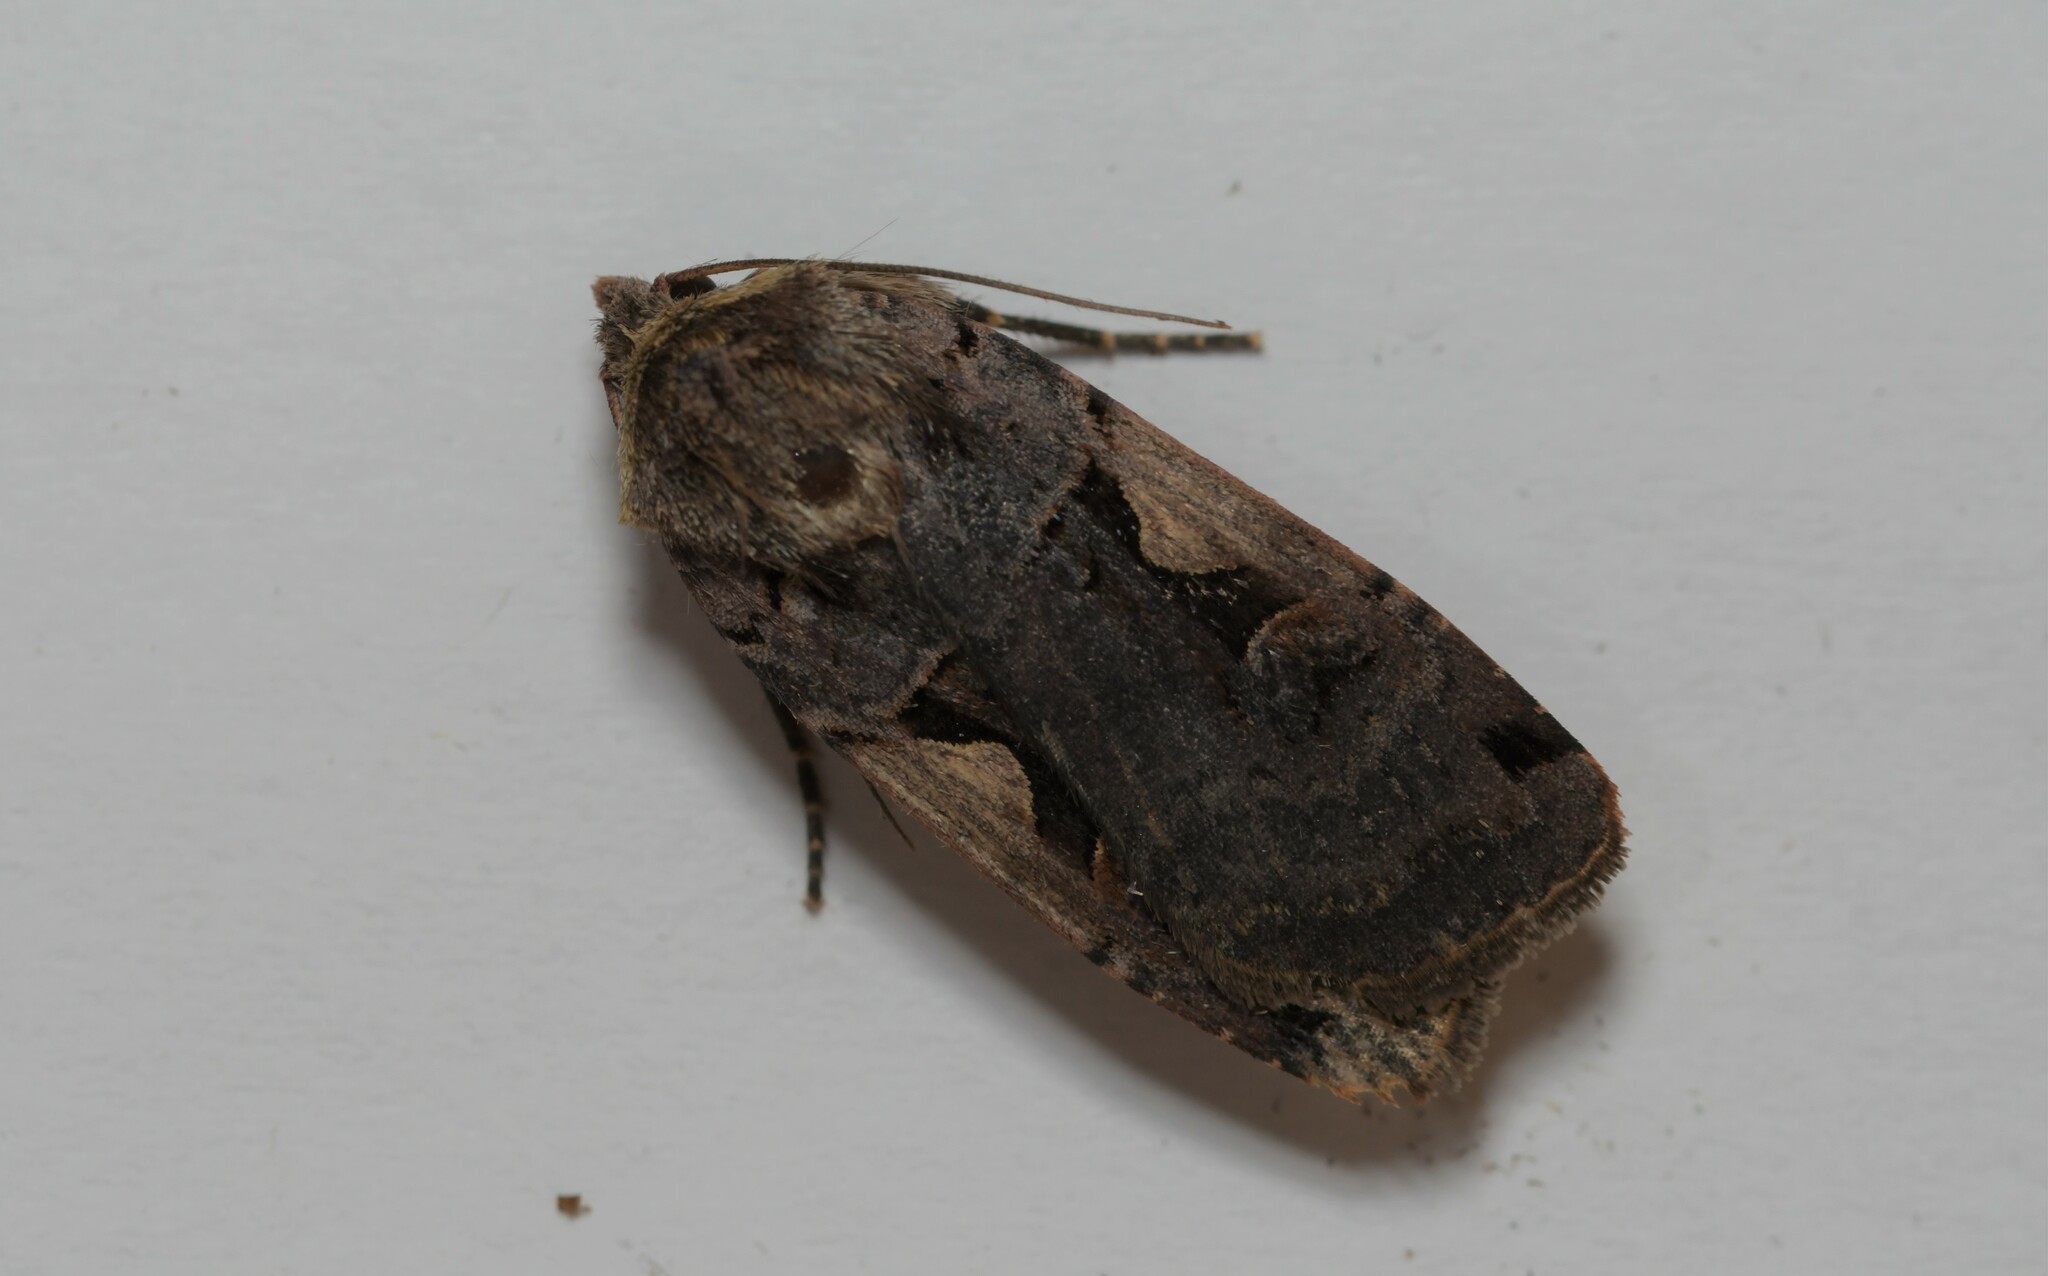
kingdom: Animalia
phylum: Arthropoda
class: Insecta
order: Lepidoptera
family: Noctuidae
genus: Xestia
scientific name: Xestia c-nigrum
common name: Setaceous hebrew character
